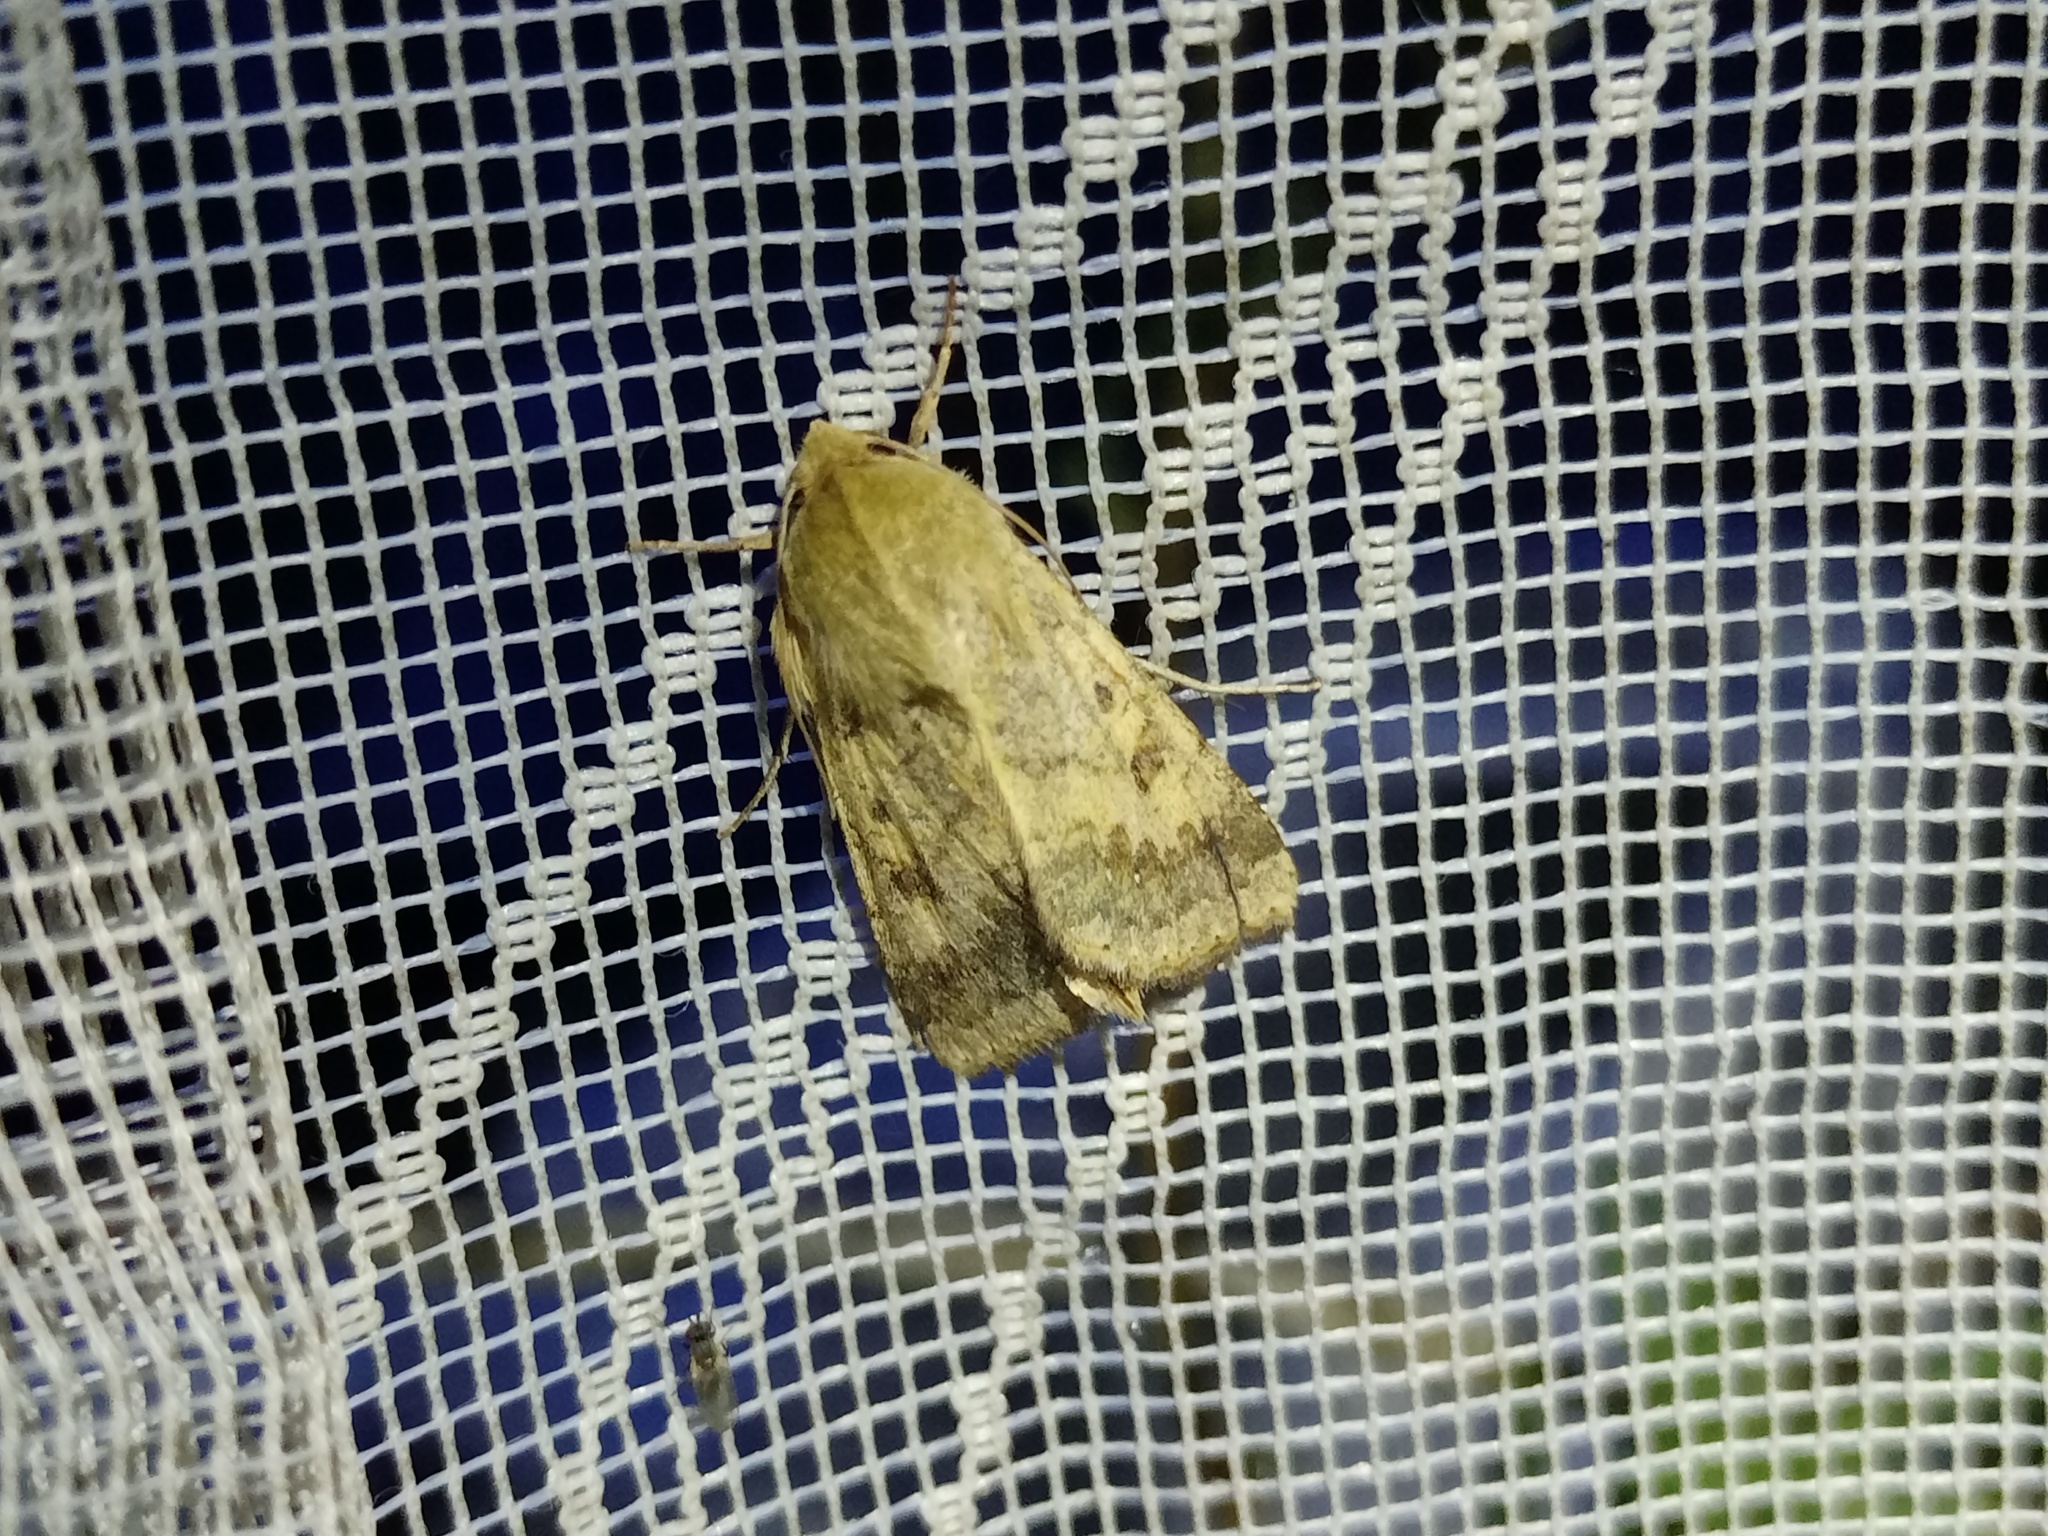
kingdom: Animalia
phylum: Arthropoda
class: Insecta
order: Lepidoptera
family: Noctuidae
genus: Helicoverpa
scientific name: Helicoverpa armigera
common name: Cotton bollworm
